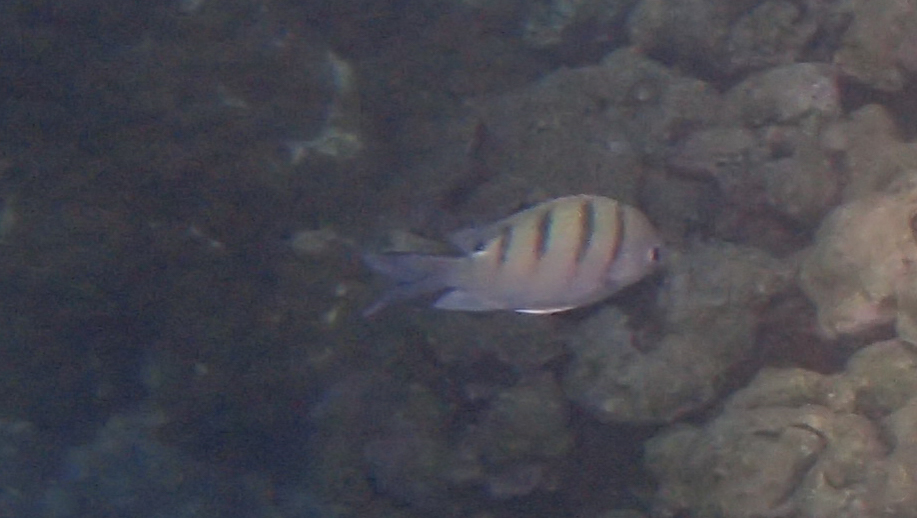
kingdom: Animalia
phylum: Chordata
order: Perciformes
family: Pomacentridae
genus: Abudefduf
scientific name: Abudefduf abdominalis
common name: Green damselfish
